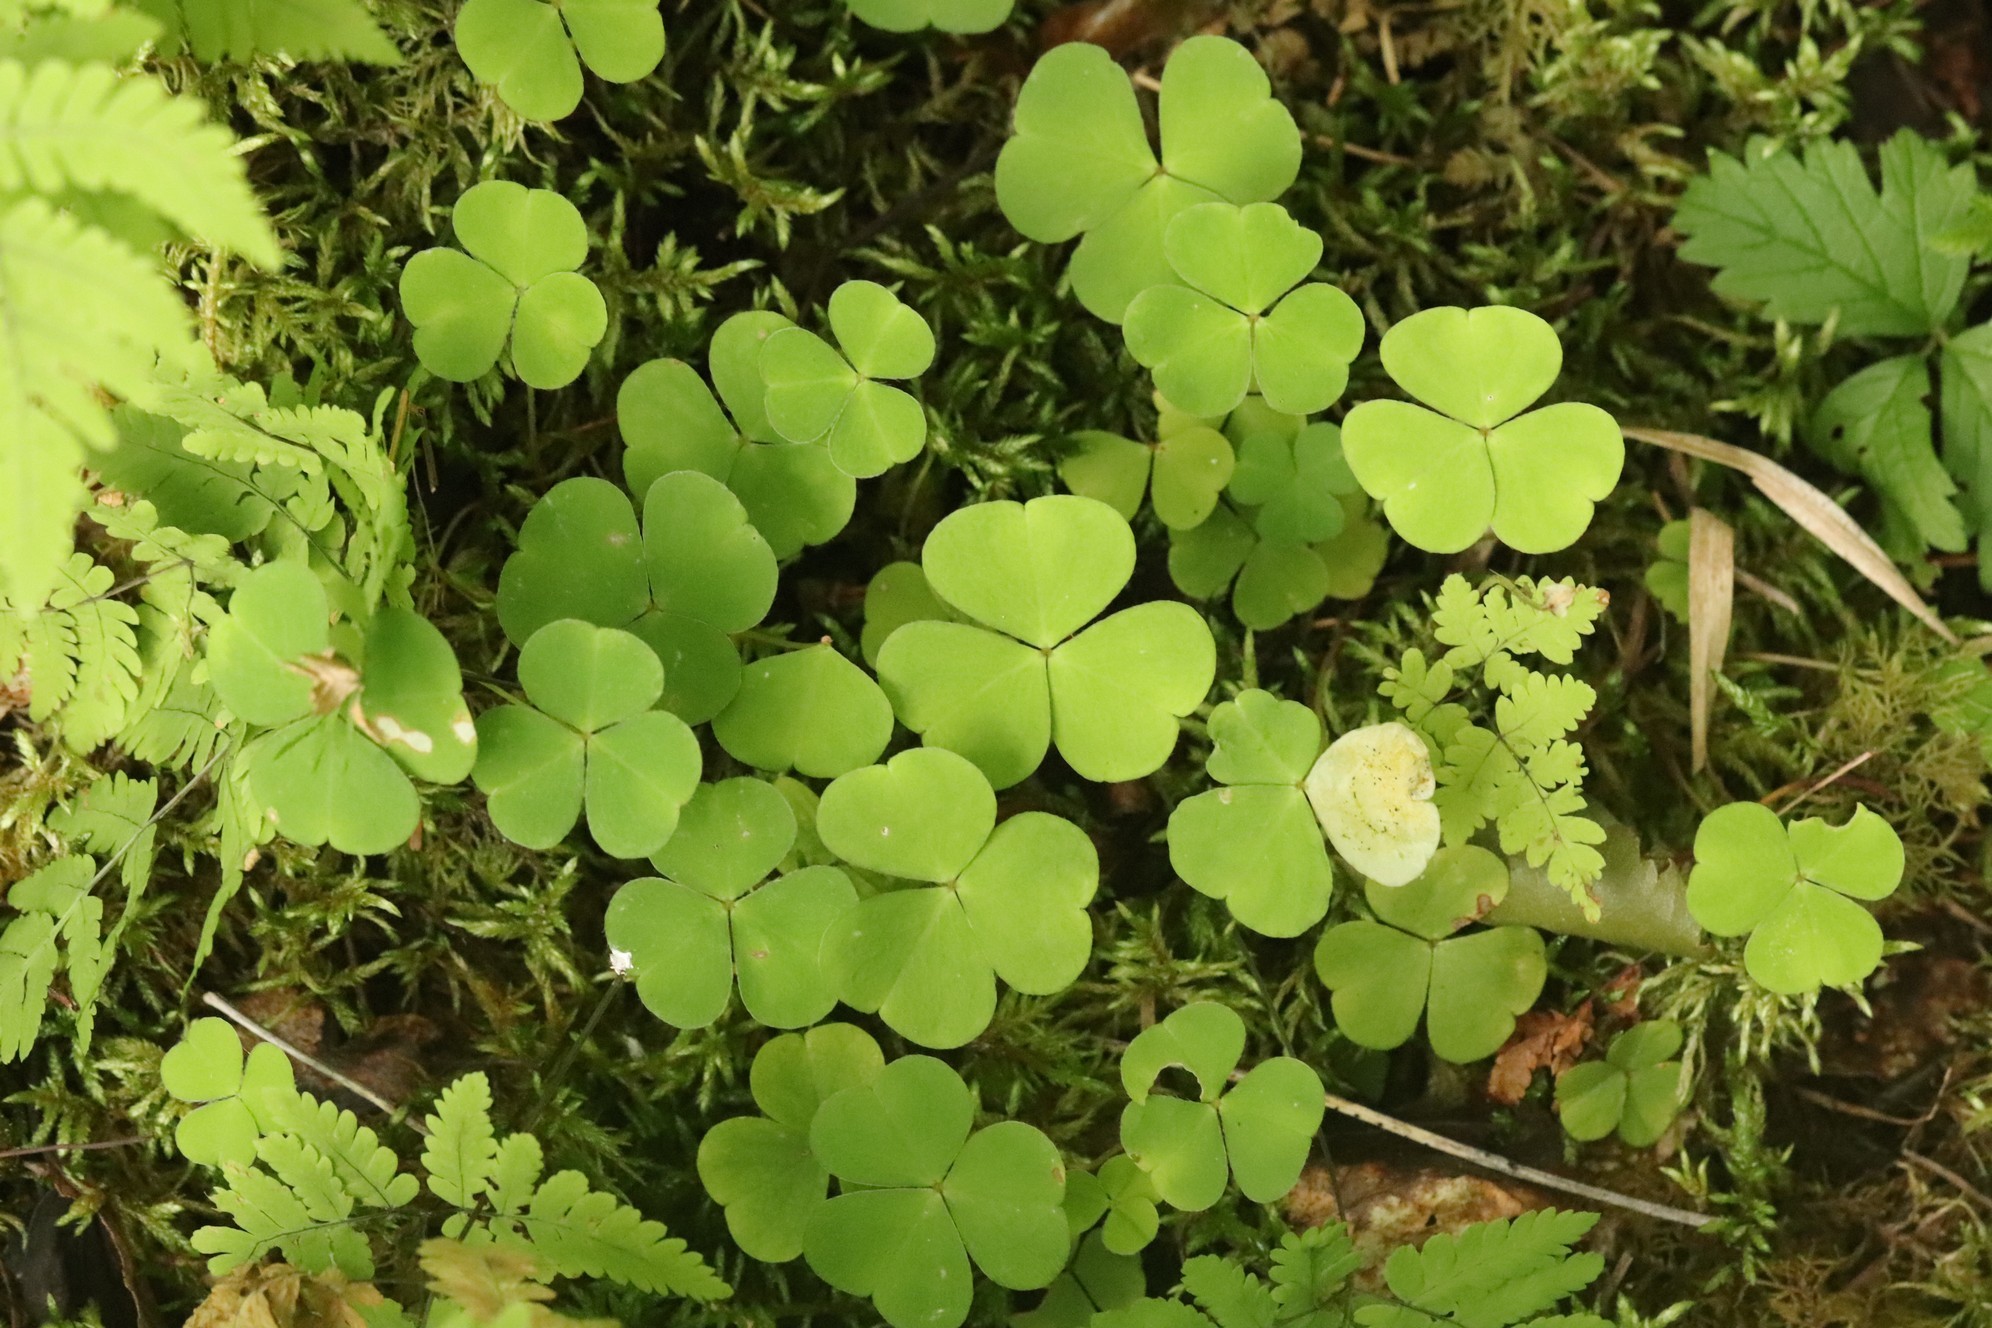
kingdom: Plantae
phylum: Tracheophyta
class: Magnoliopsida
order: Oxalidales
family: Oxalidaceae
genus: Oxalis
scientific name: Oxalis acetosella
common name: Wood-sorrel
